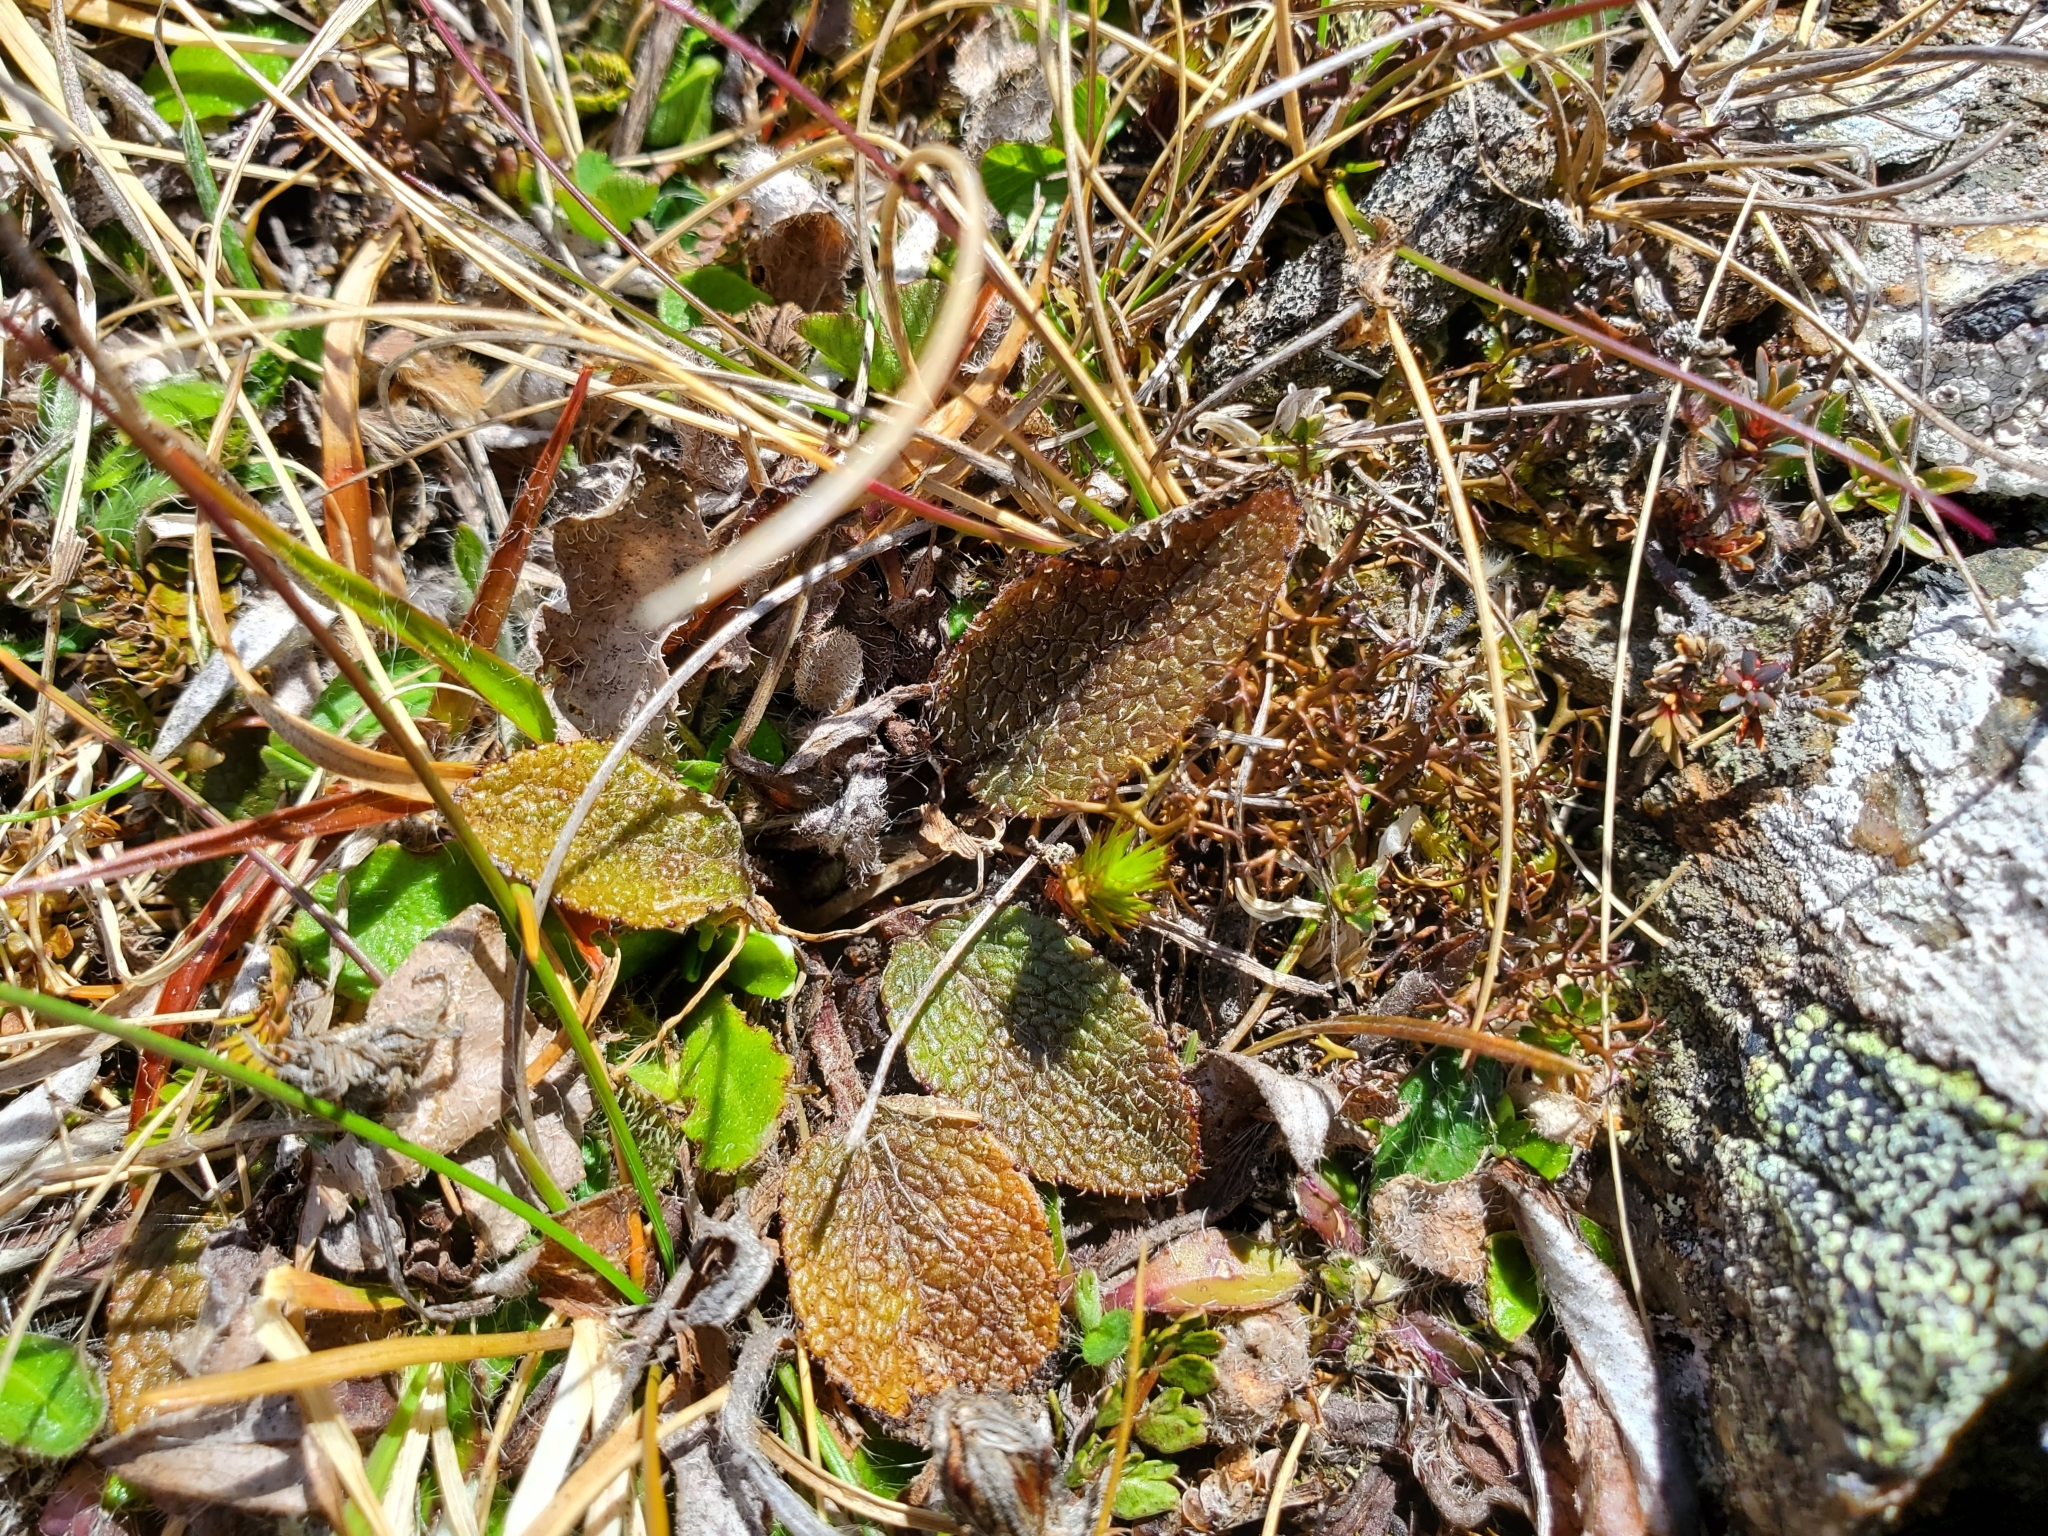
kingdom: Plantae
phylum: Tracheophyta
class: Magnoliopsida
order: Asterales
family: Asteraceae
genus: Brachyglottis
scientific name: Brachyglottis bellidioides
